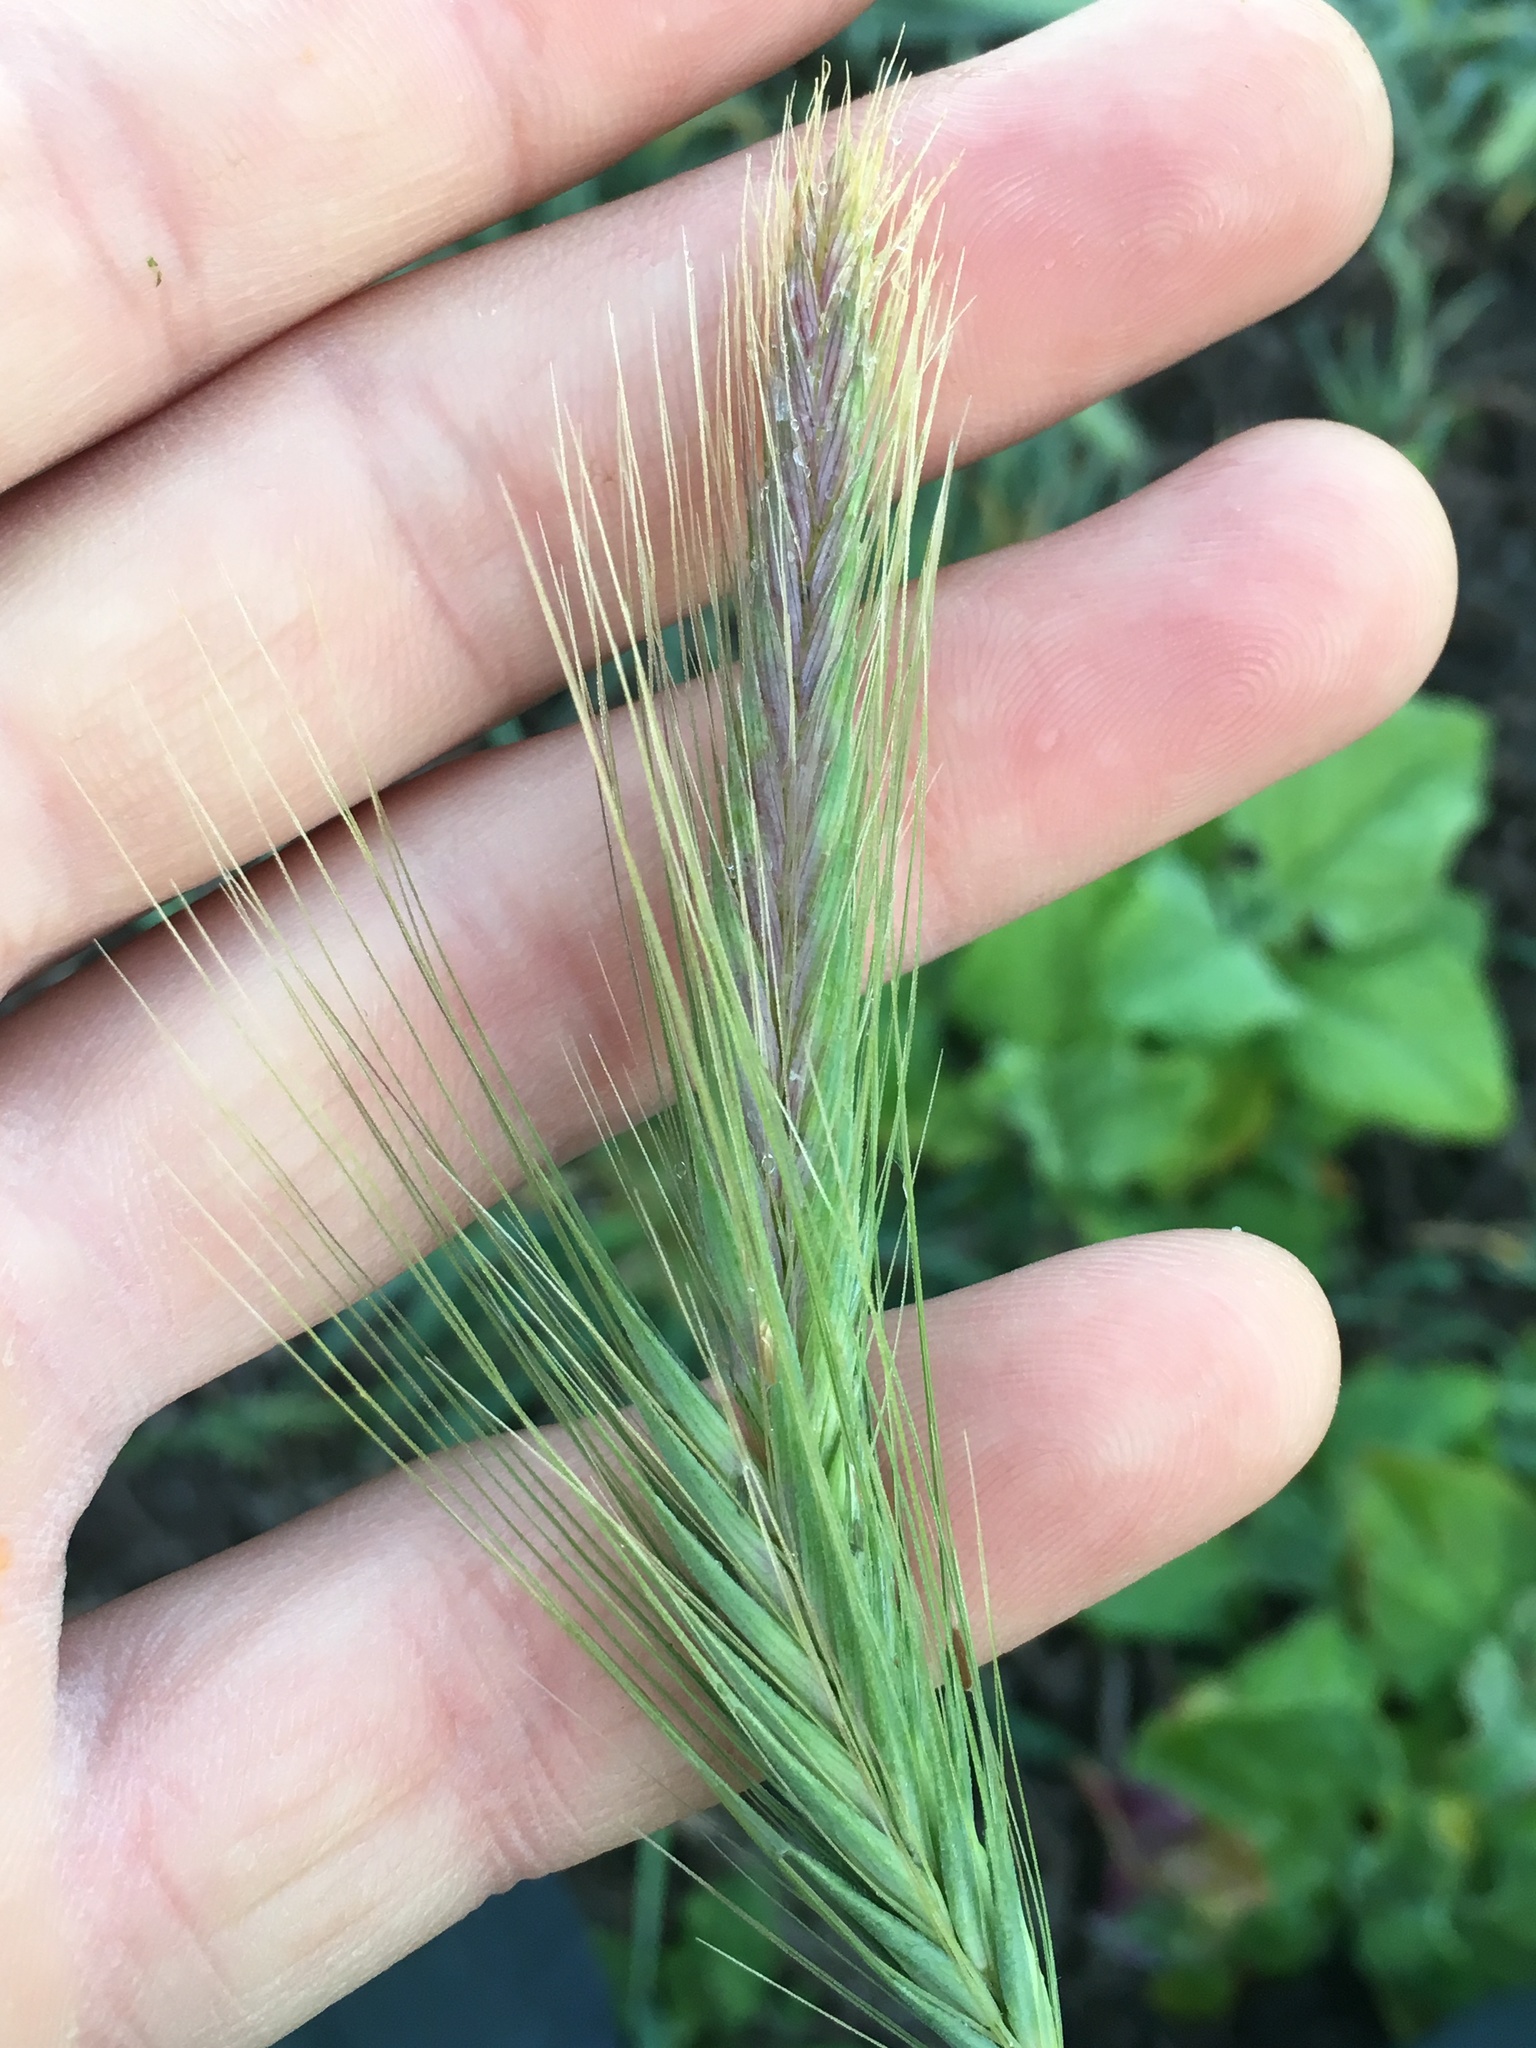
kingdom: Plantae
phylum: Tracheophyta
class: Liliopsida
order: Poales
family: Poaceae
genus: Hordeum
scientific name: Hordeum murinum
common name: Wall barley
